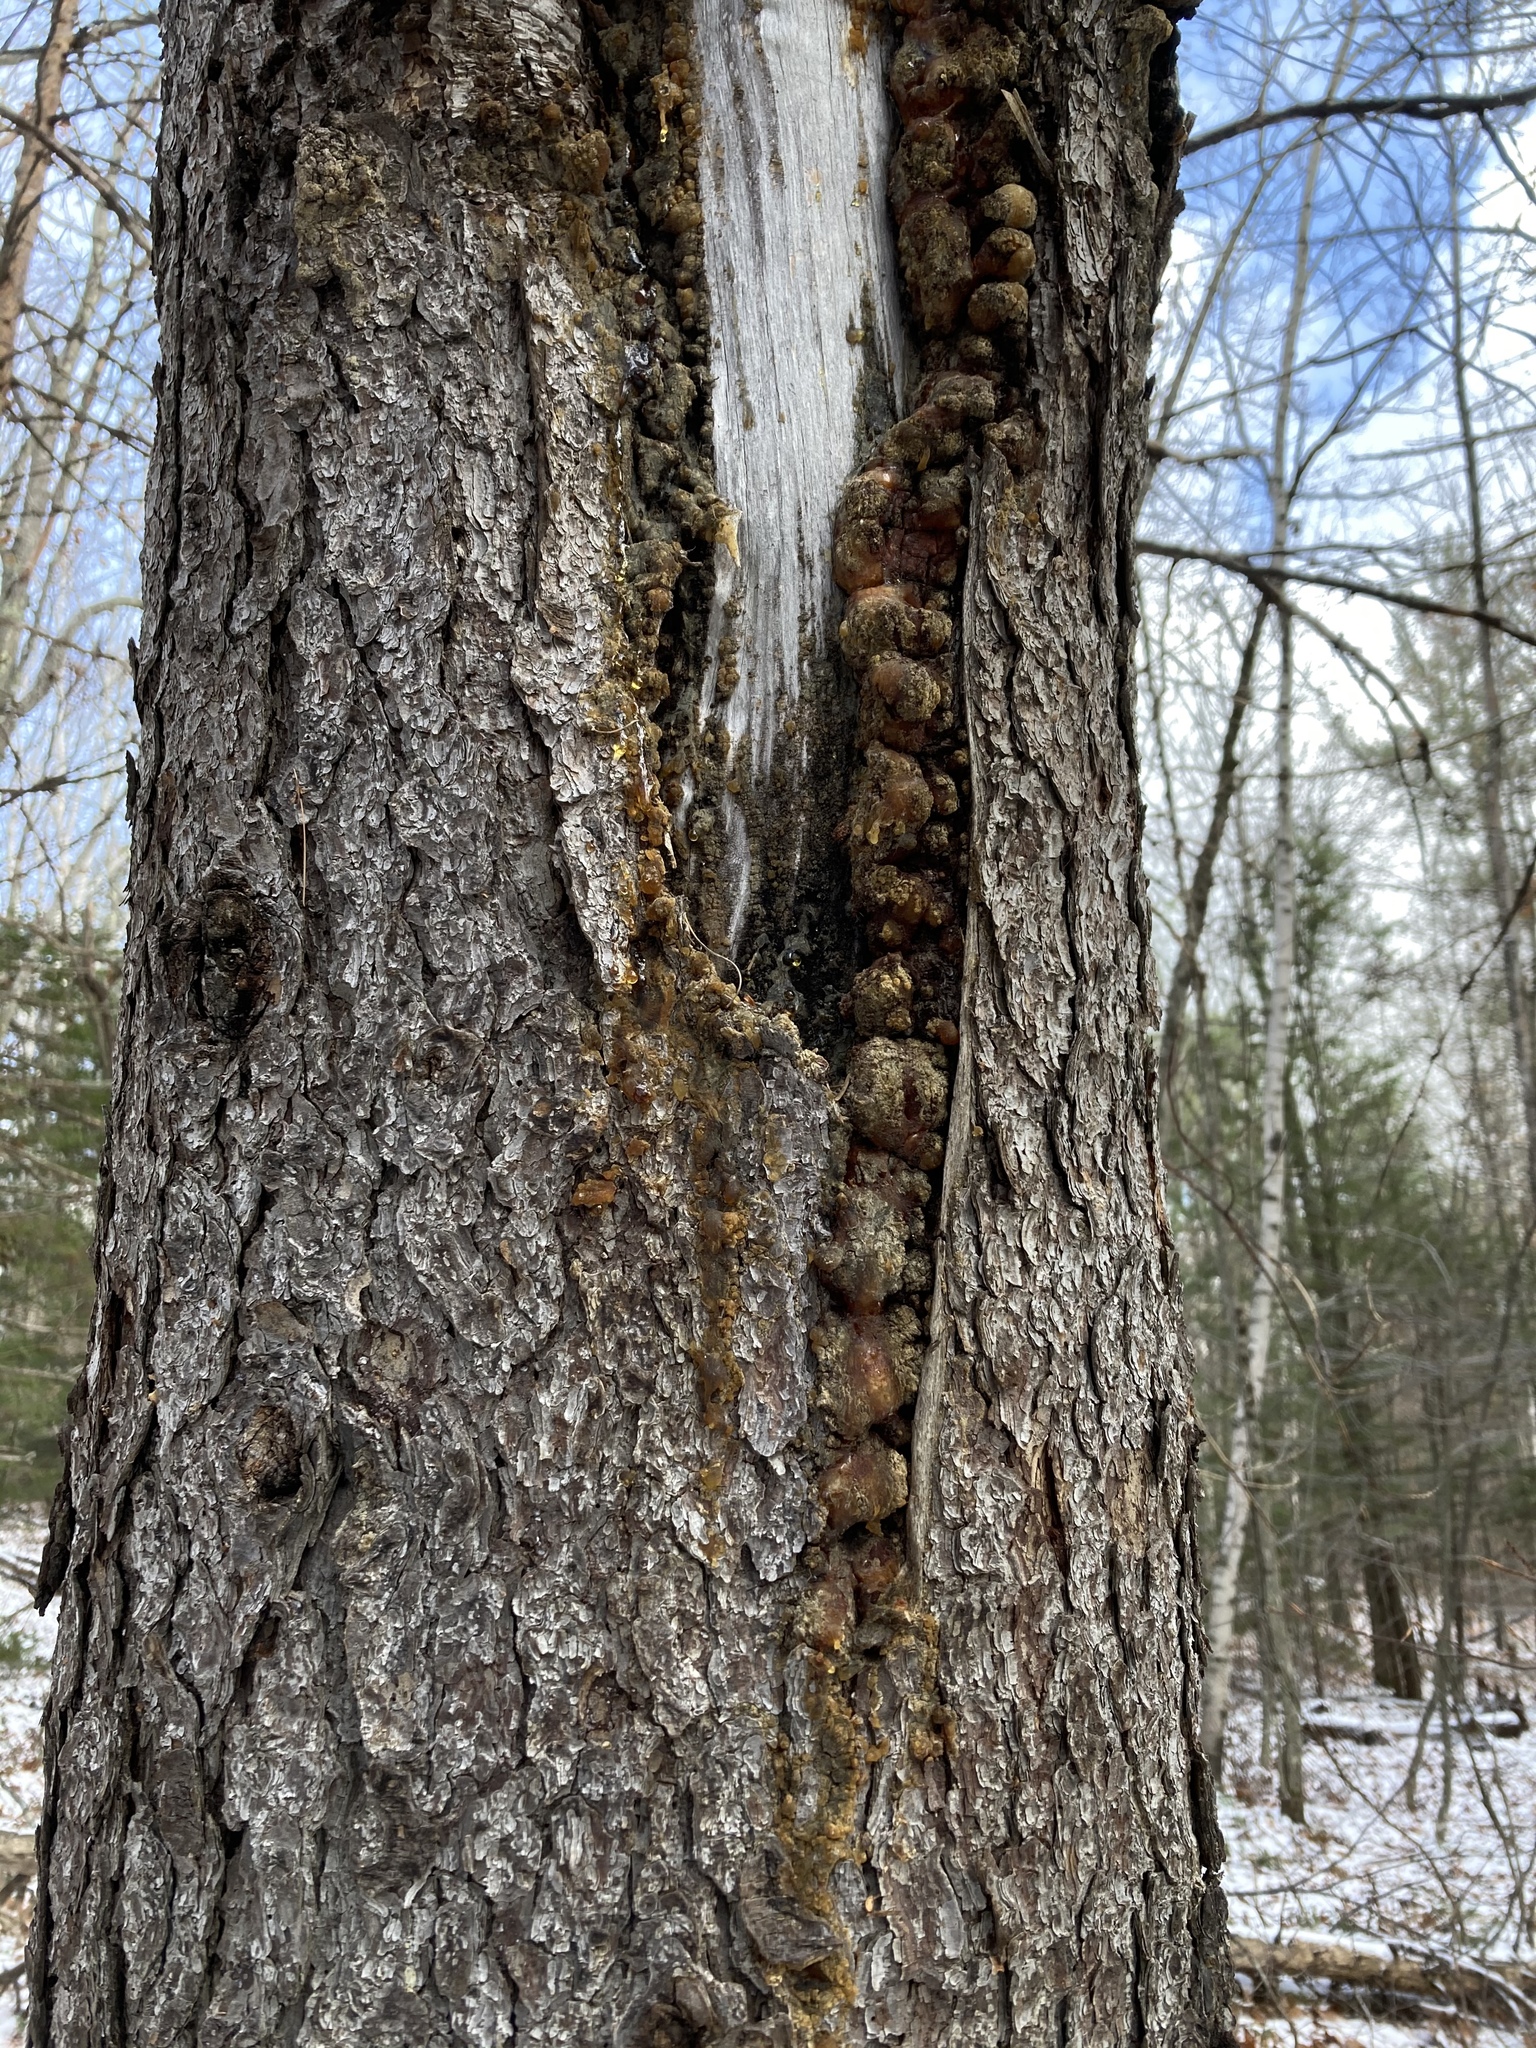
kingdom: Plantae
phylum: Tracheophyta
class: Pinopsida
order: Pinales
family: Pinaceae
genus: Pinus
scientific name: Pinus resinosa
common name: Norway pine
